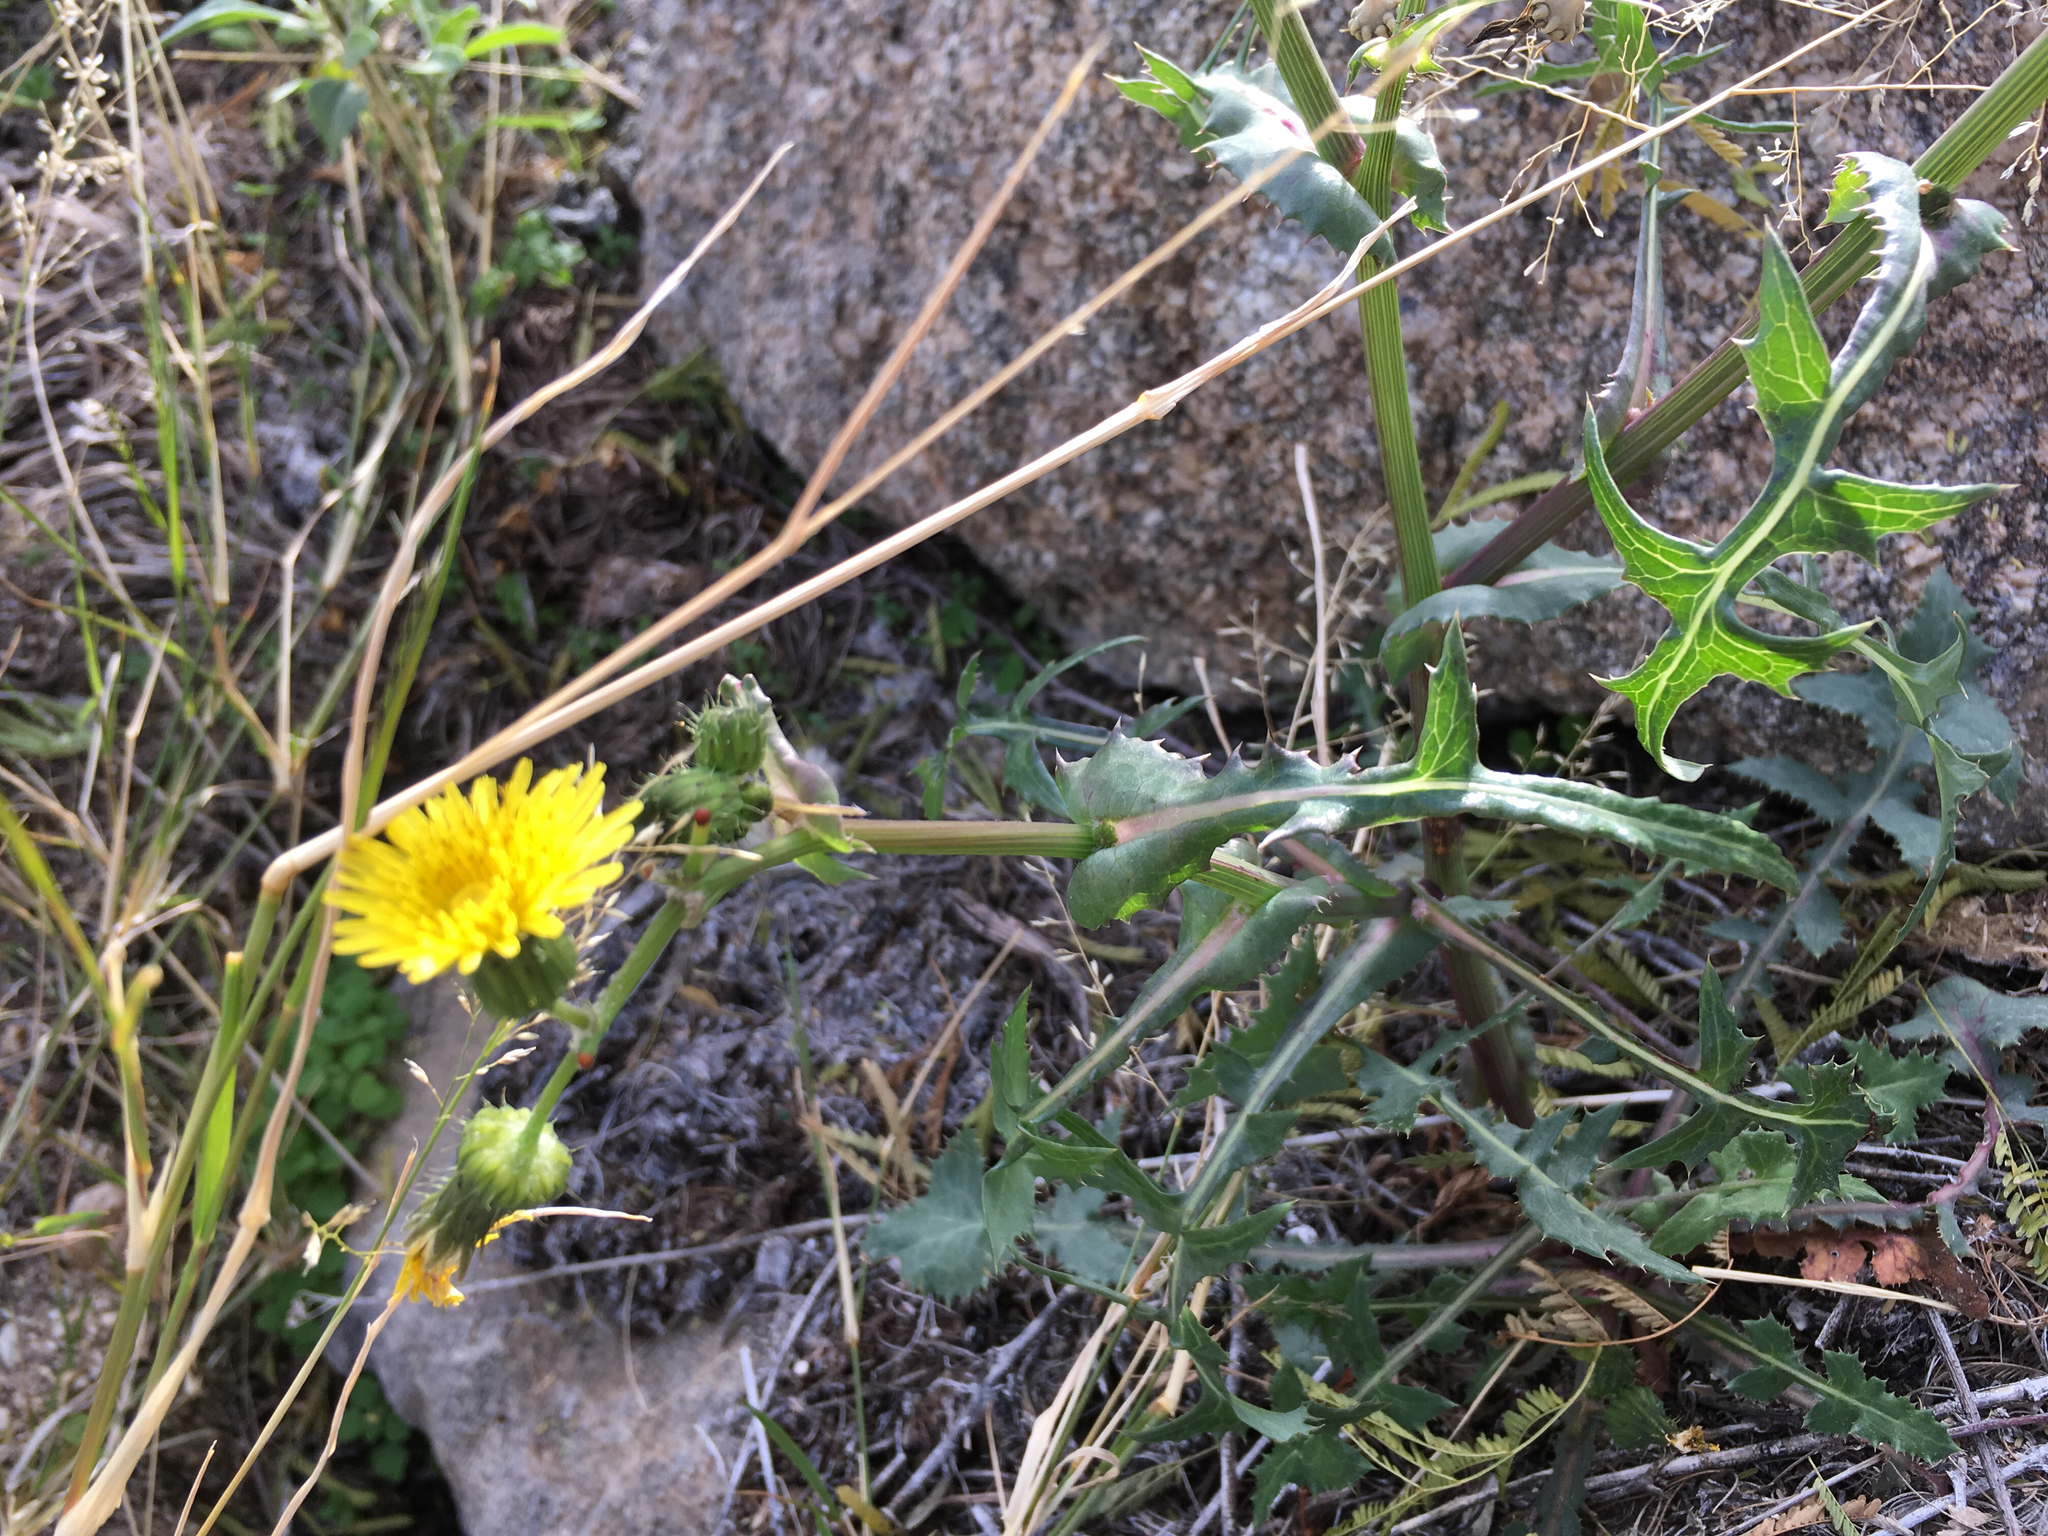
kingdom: Plantae
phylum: Tracheophyta
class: Magnoliopsida
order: Asterales
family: Asteraceae
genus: Sonchus
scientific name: Sonchus oleraceus
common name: Common sowthistle
